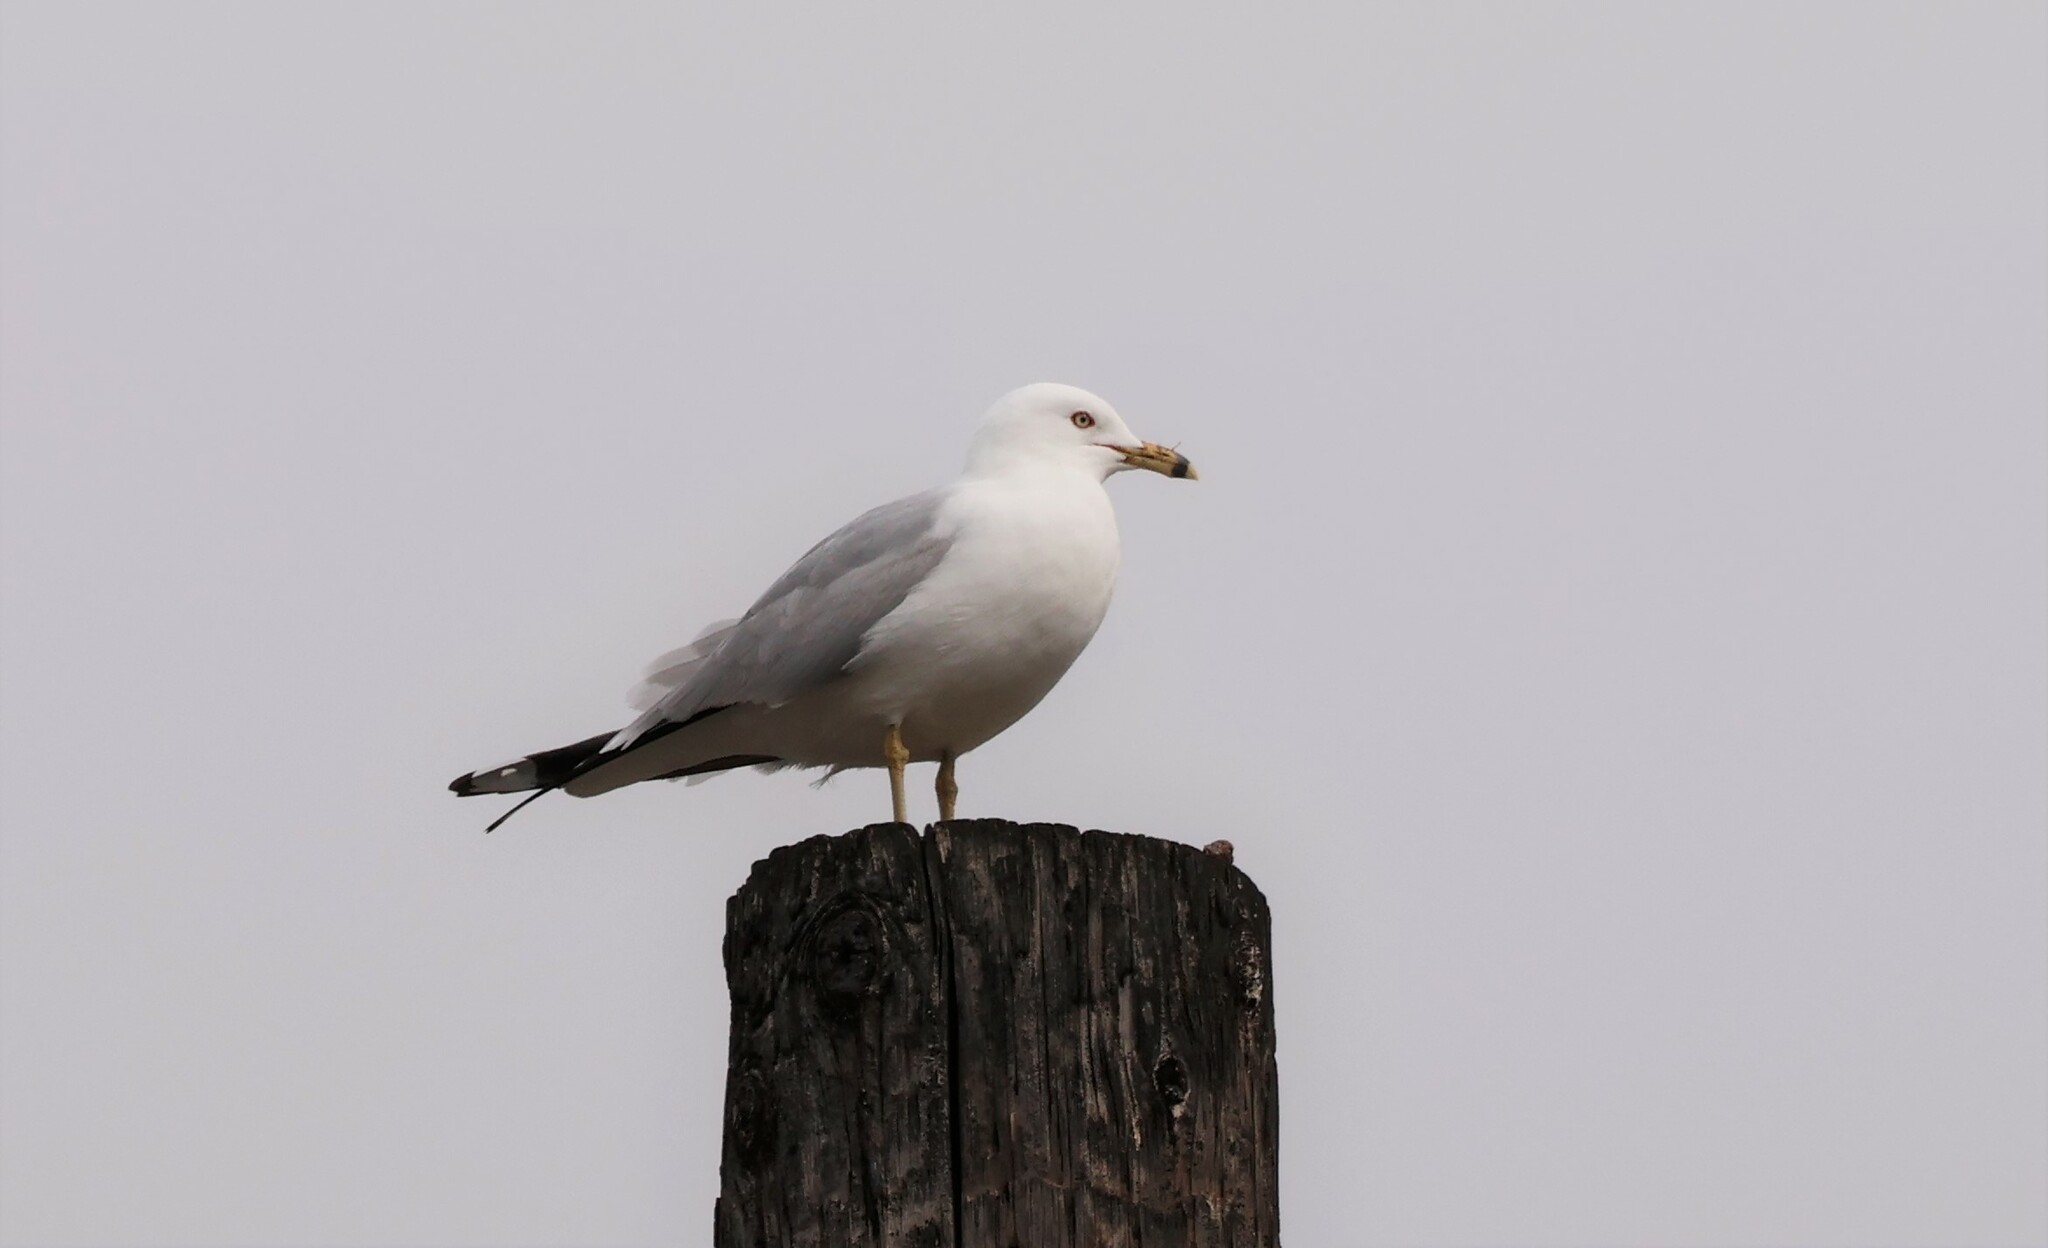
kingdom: Animalia
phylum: Chordata
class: Aves
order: Charadriiformes
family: Laridae
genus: Larus
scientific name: Larus delawarensis
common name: Ring-billed gull
